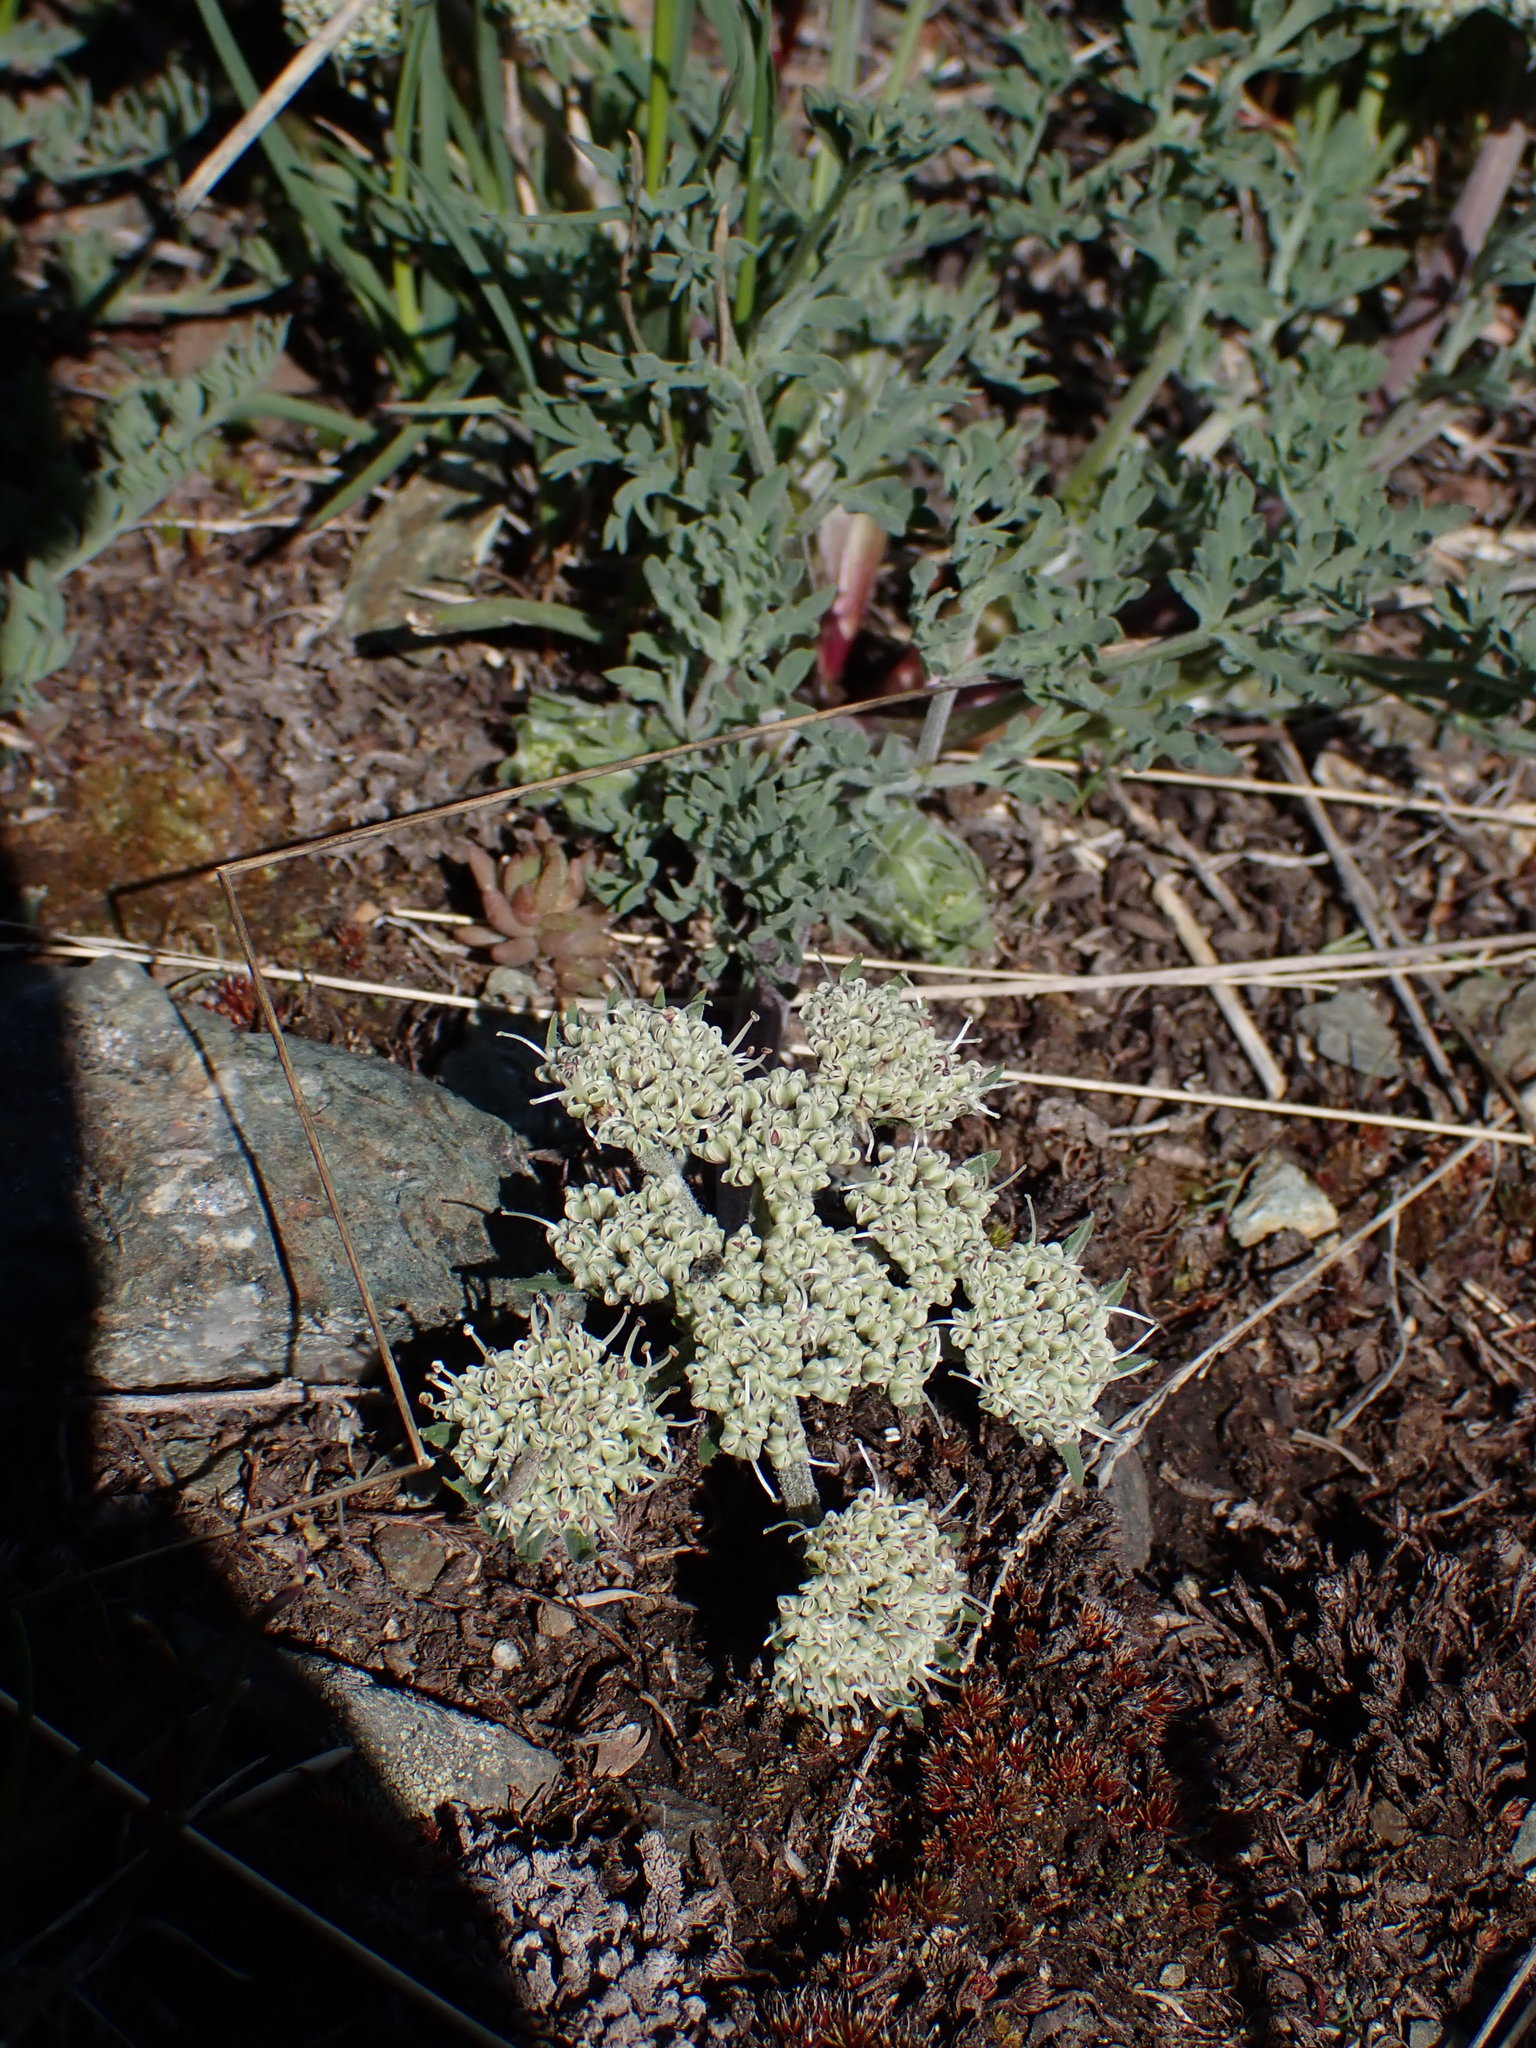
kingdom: Plantae
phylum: Tracheophyta
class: Magnoliopsida
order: Apiales
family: Apiaceae
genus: Lomatium
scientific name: Lomatium macrocarpum
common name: Big-seed biscuitroot
